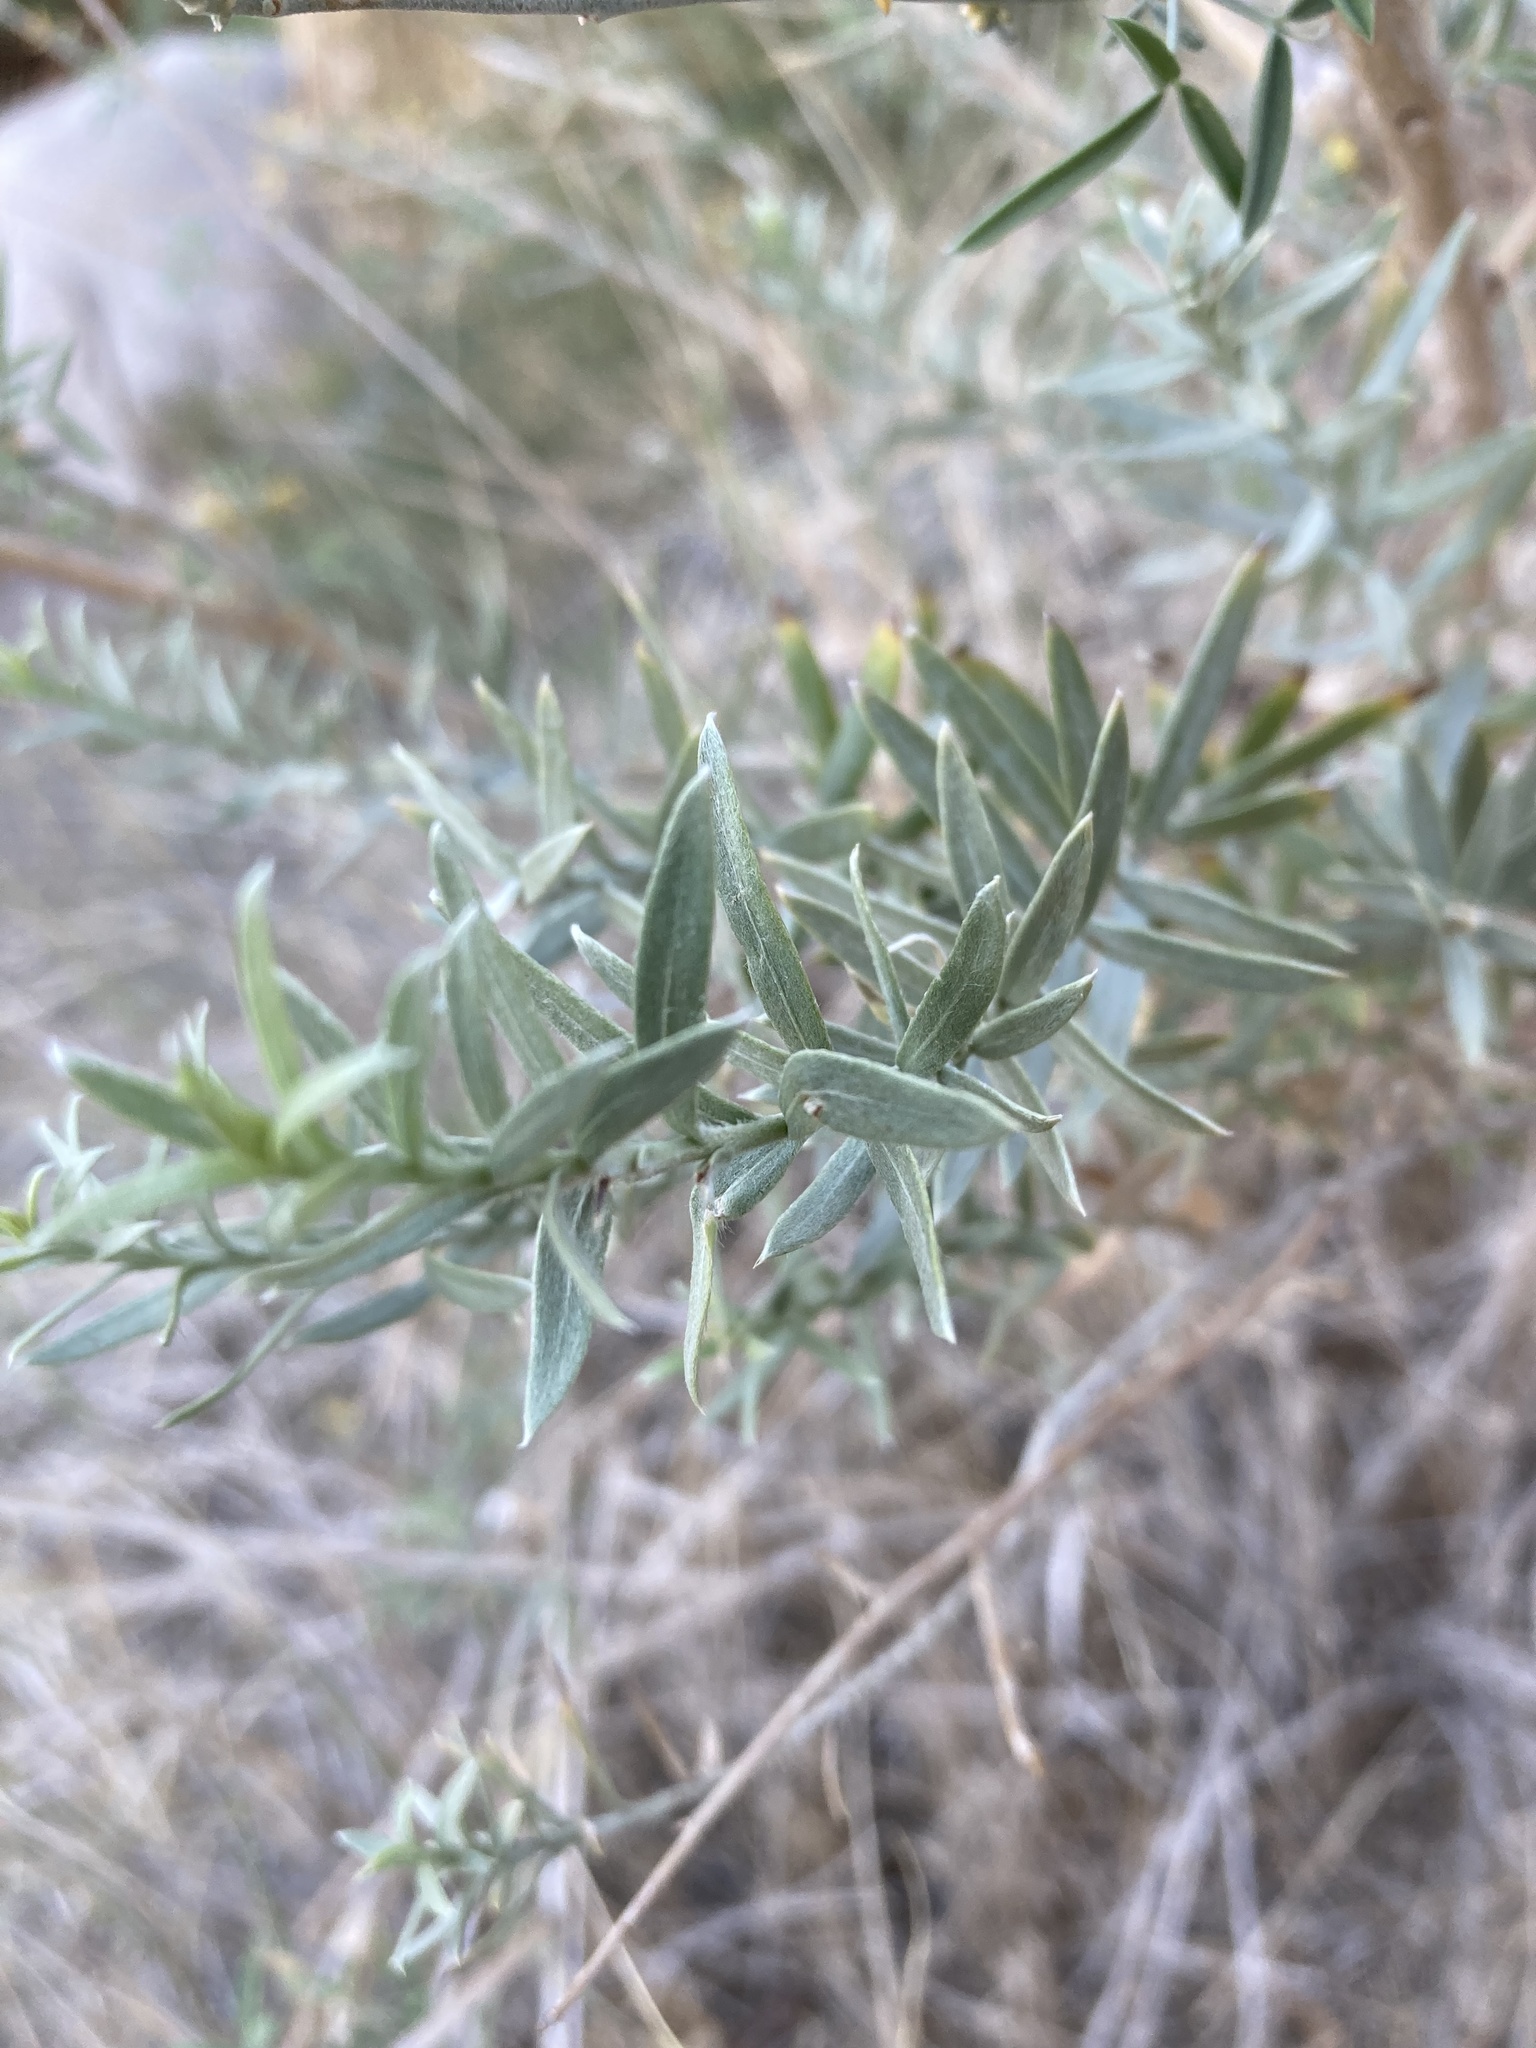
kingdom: Plantae
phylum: Tracheophyta
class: Magnoliopsida
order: Asterales
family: Asteraceae
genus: Pluchea
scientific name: Pluchea sericea
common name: Arrow-weed
